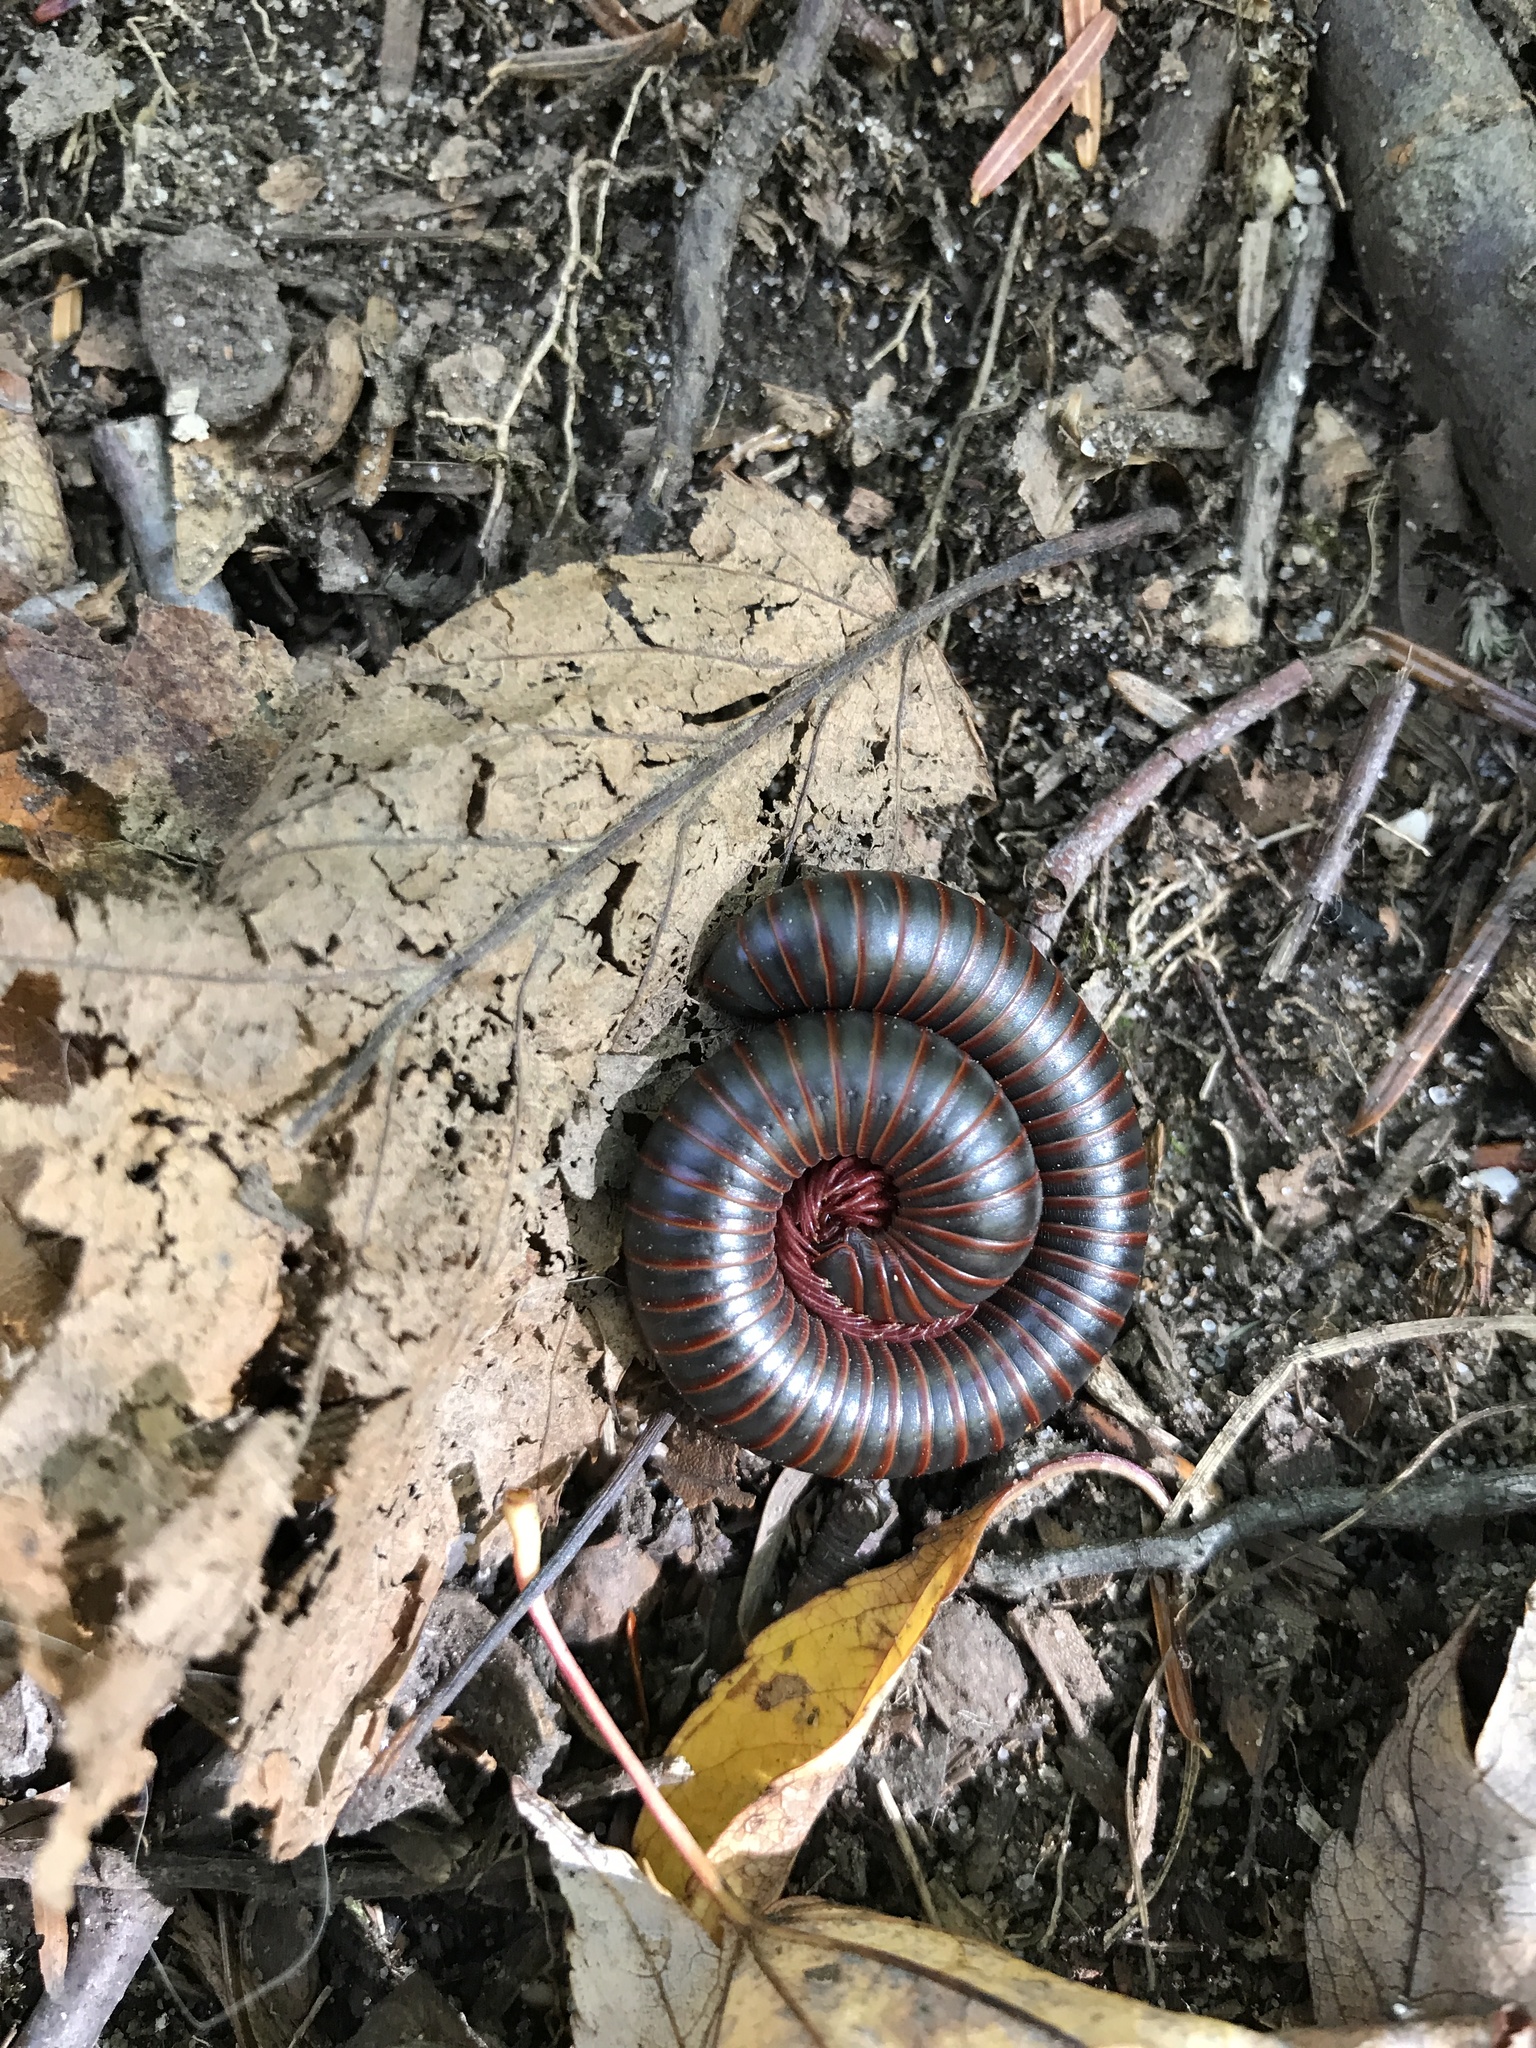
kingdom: Animalia
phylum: Arthropoda
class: Diplopoda
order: Spirobolida
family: Spirobolidae
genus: Narceus
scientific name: Narceus
